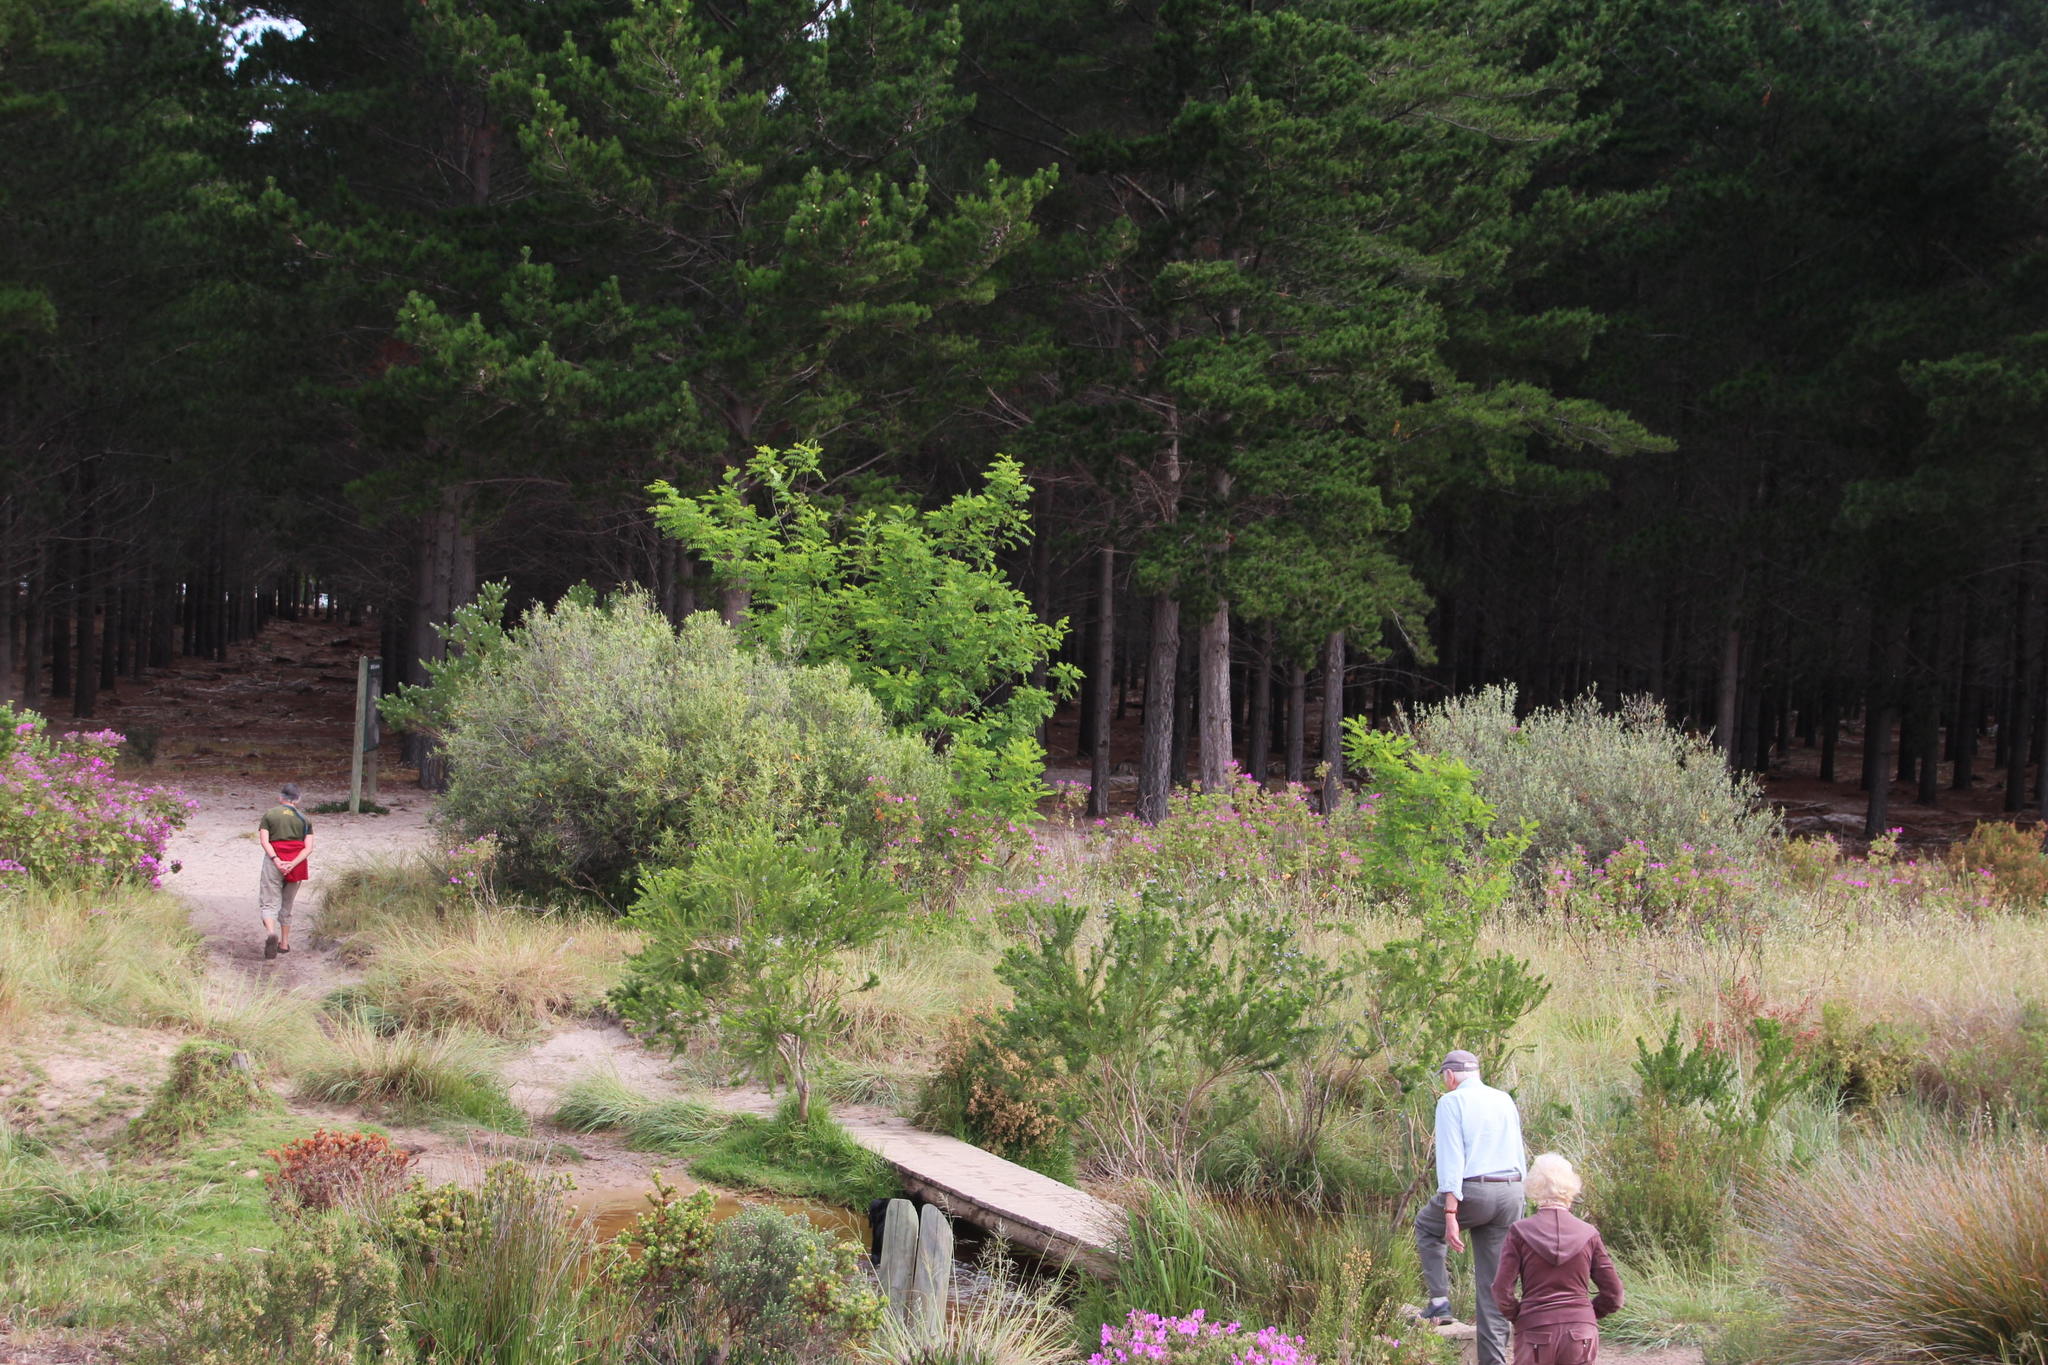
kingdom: Plantae
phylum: Tracheophyta
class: Magnoliopsida
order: Fabales
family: Fabaceae
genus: Robinia
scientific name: Robinia pseudoacacia
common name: Black locust
